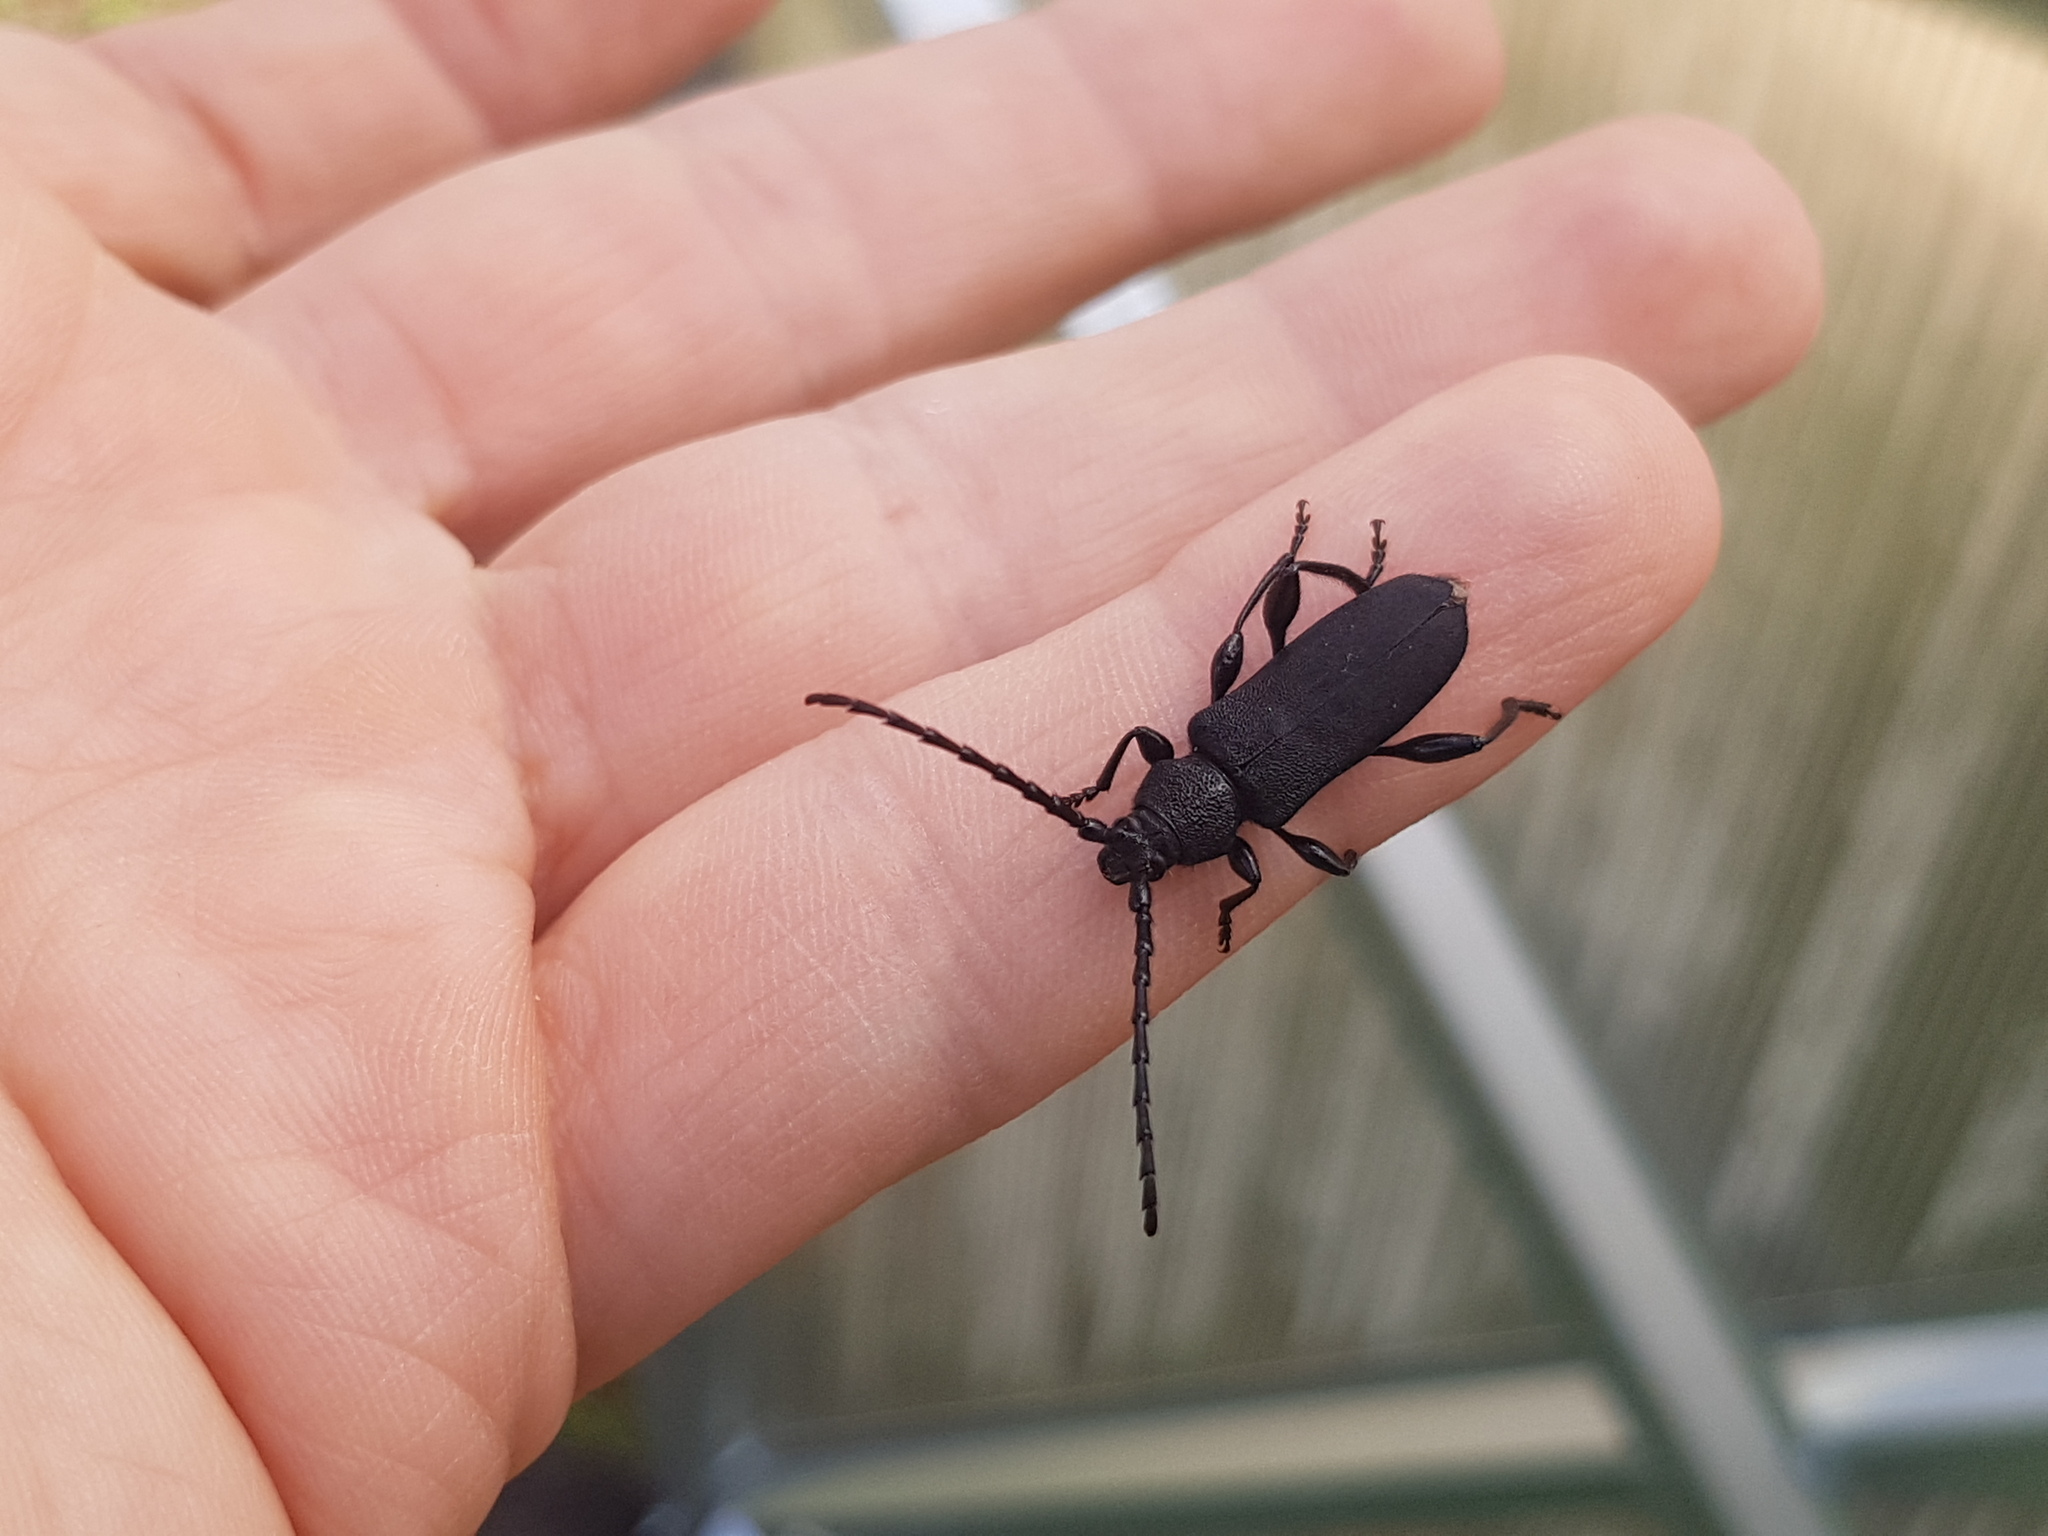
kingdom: Animalia
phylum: Arthropoda
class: Insecta
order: Coleoptera
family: Cerambycidae
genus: Ropalopus
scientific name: Ropalopus clavipes
